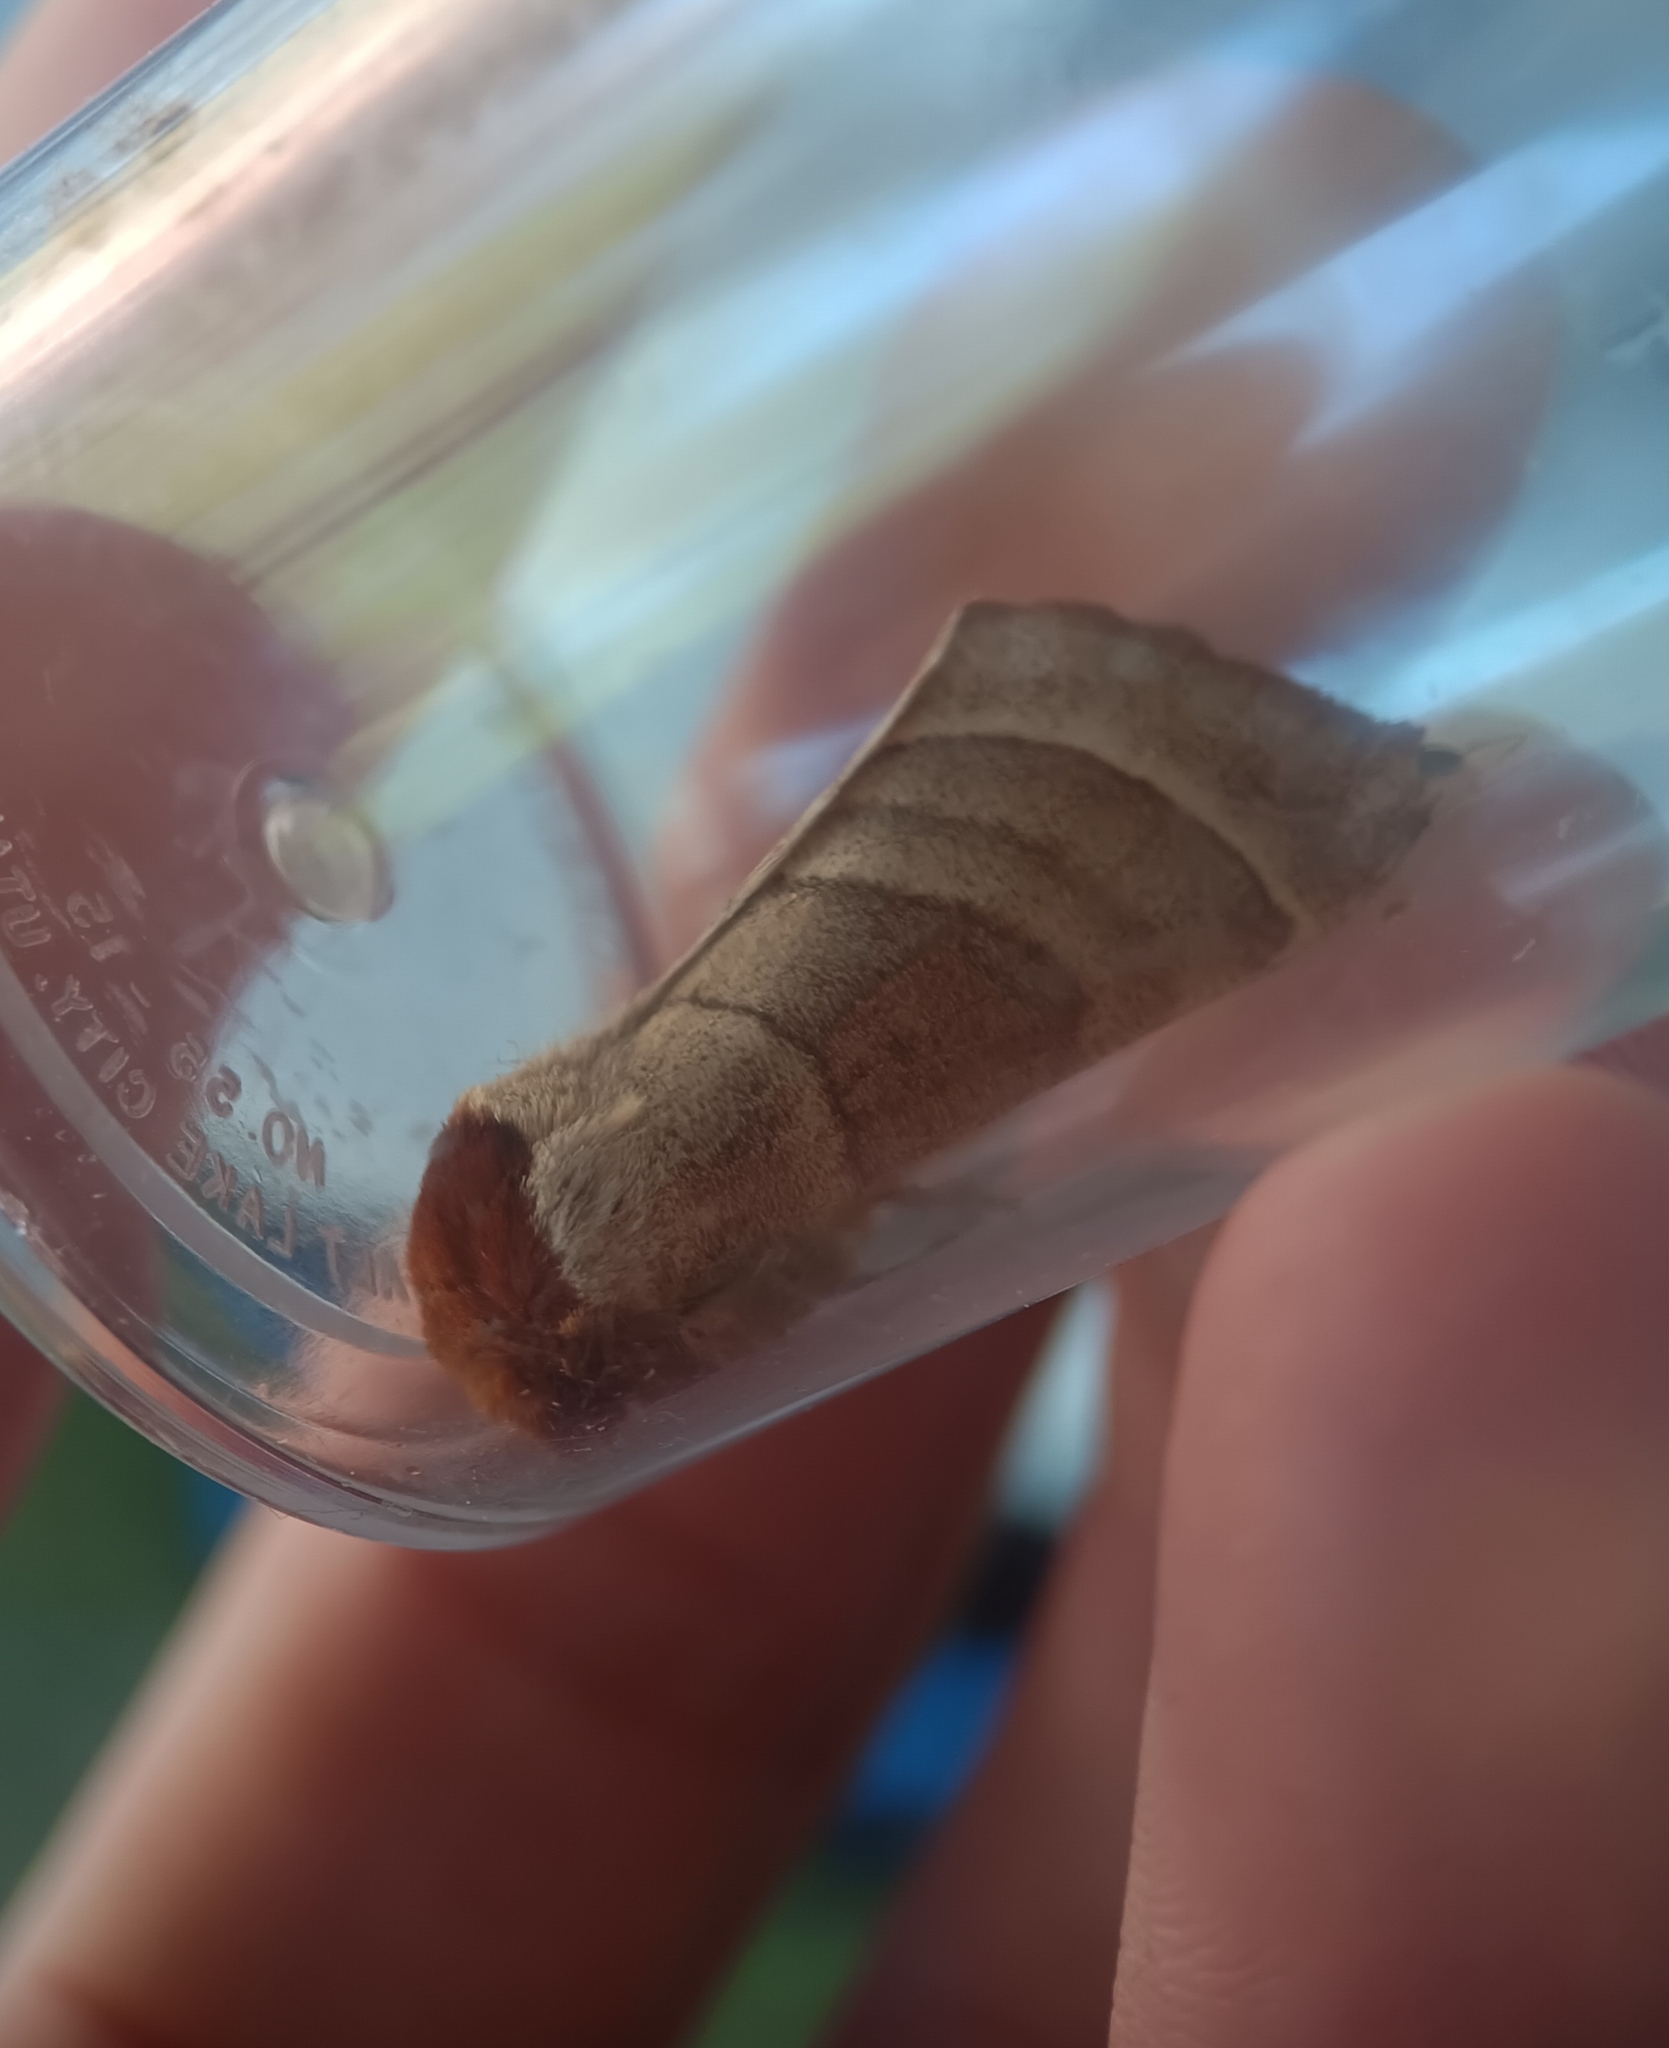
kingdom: Animalia
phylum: Arthropoda
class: Insecta
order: Lepidoptera
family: Notodontidae
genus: Datana
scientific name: Datana integerrima
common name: Walnut caterpillar
